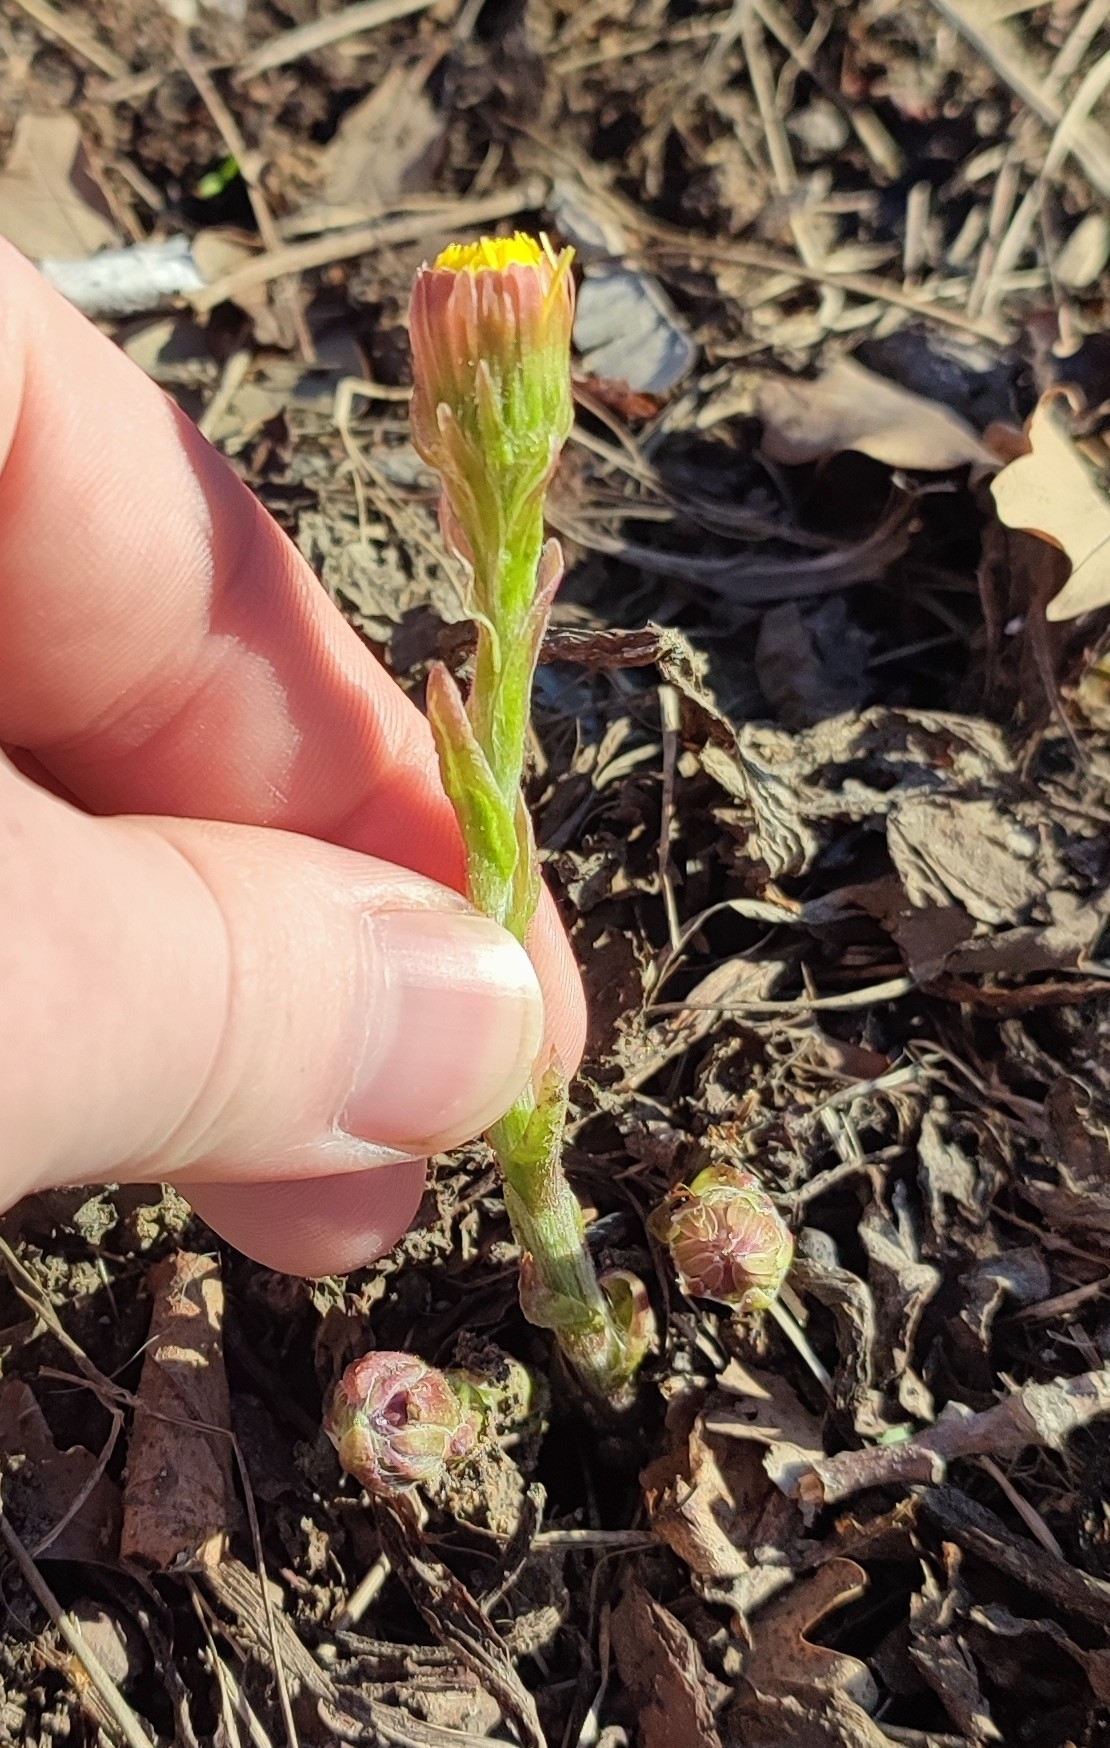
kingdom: Plantae
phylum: Tracheophyta
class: Magnoliopsida
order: Asterales
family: Asteraceae
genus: Tussilago
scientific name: Tussilago farfara
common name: Coltsfoot
